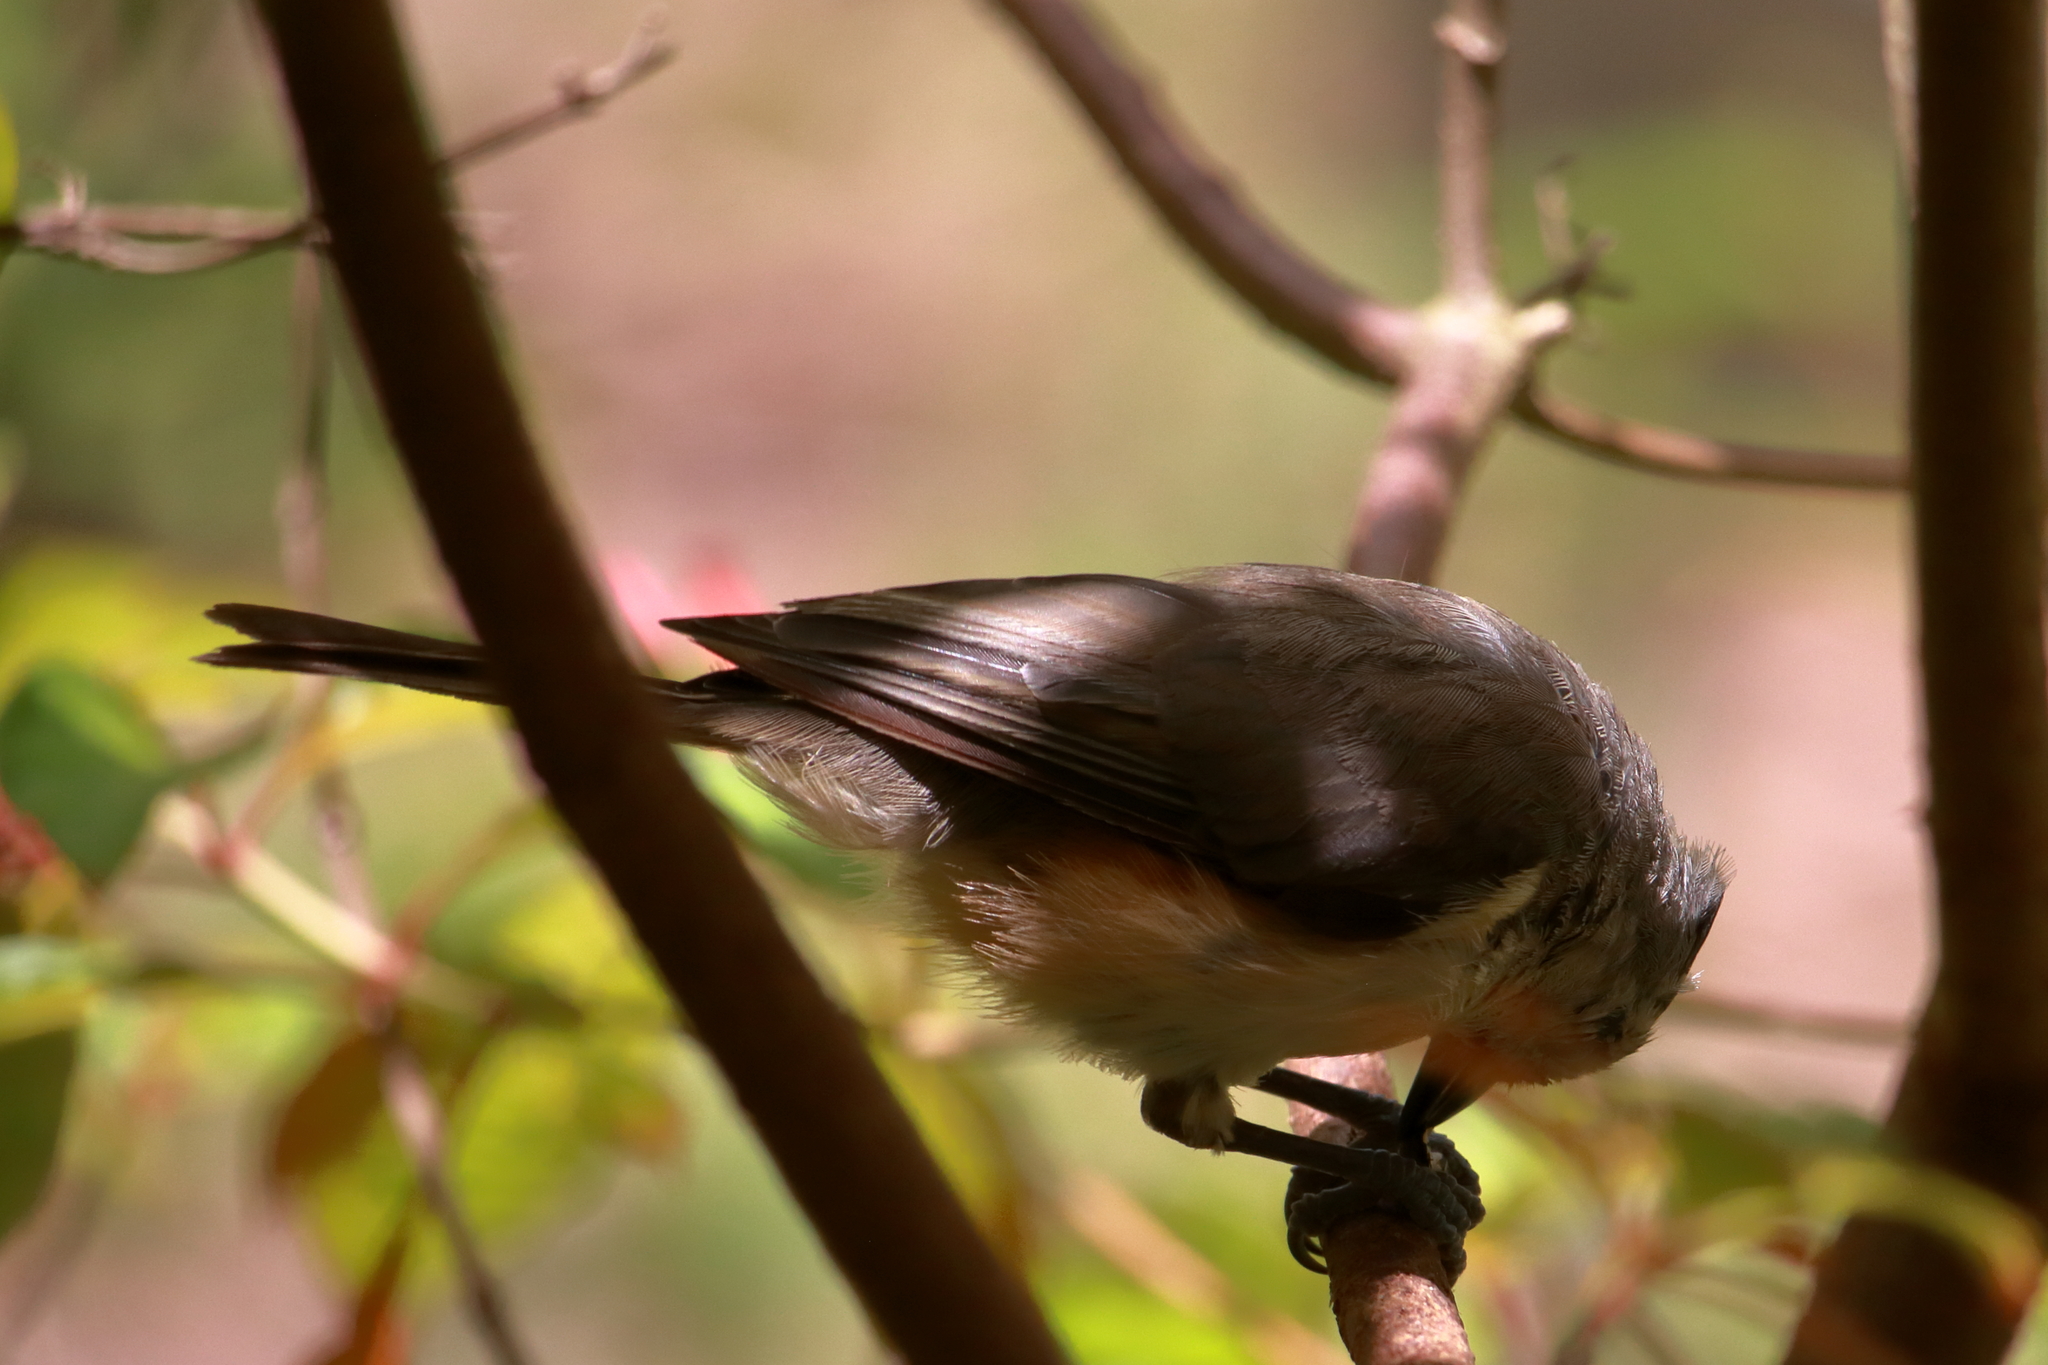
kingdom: Animalia
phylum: Chordata
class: Aves
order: Passeriformes
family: Paridae
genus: Baeolophus
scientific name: Baeolophus bicolor
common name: Tufted titmouse
